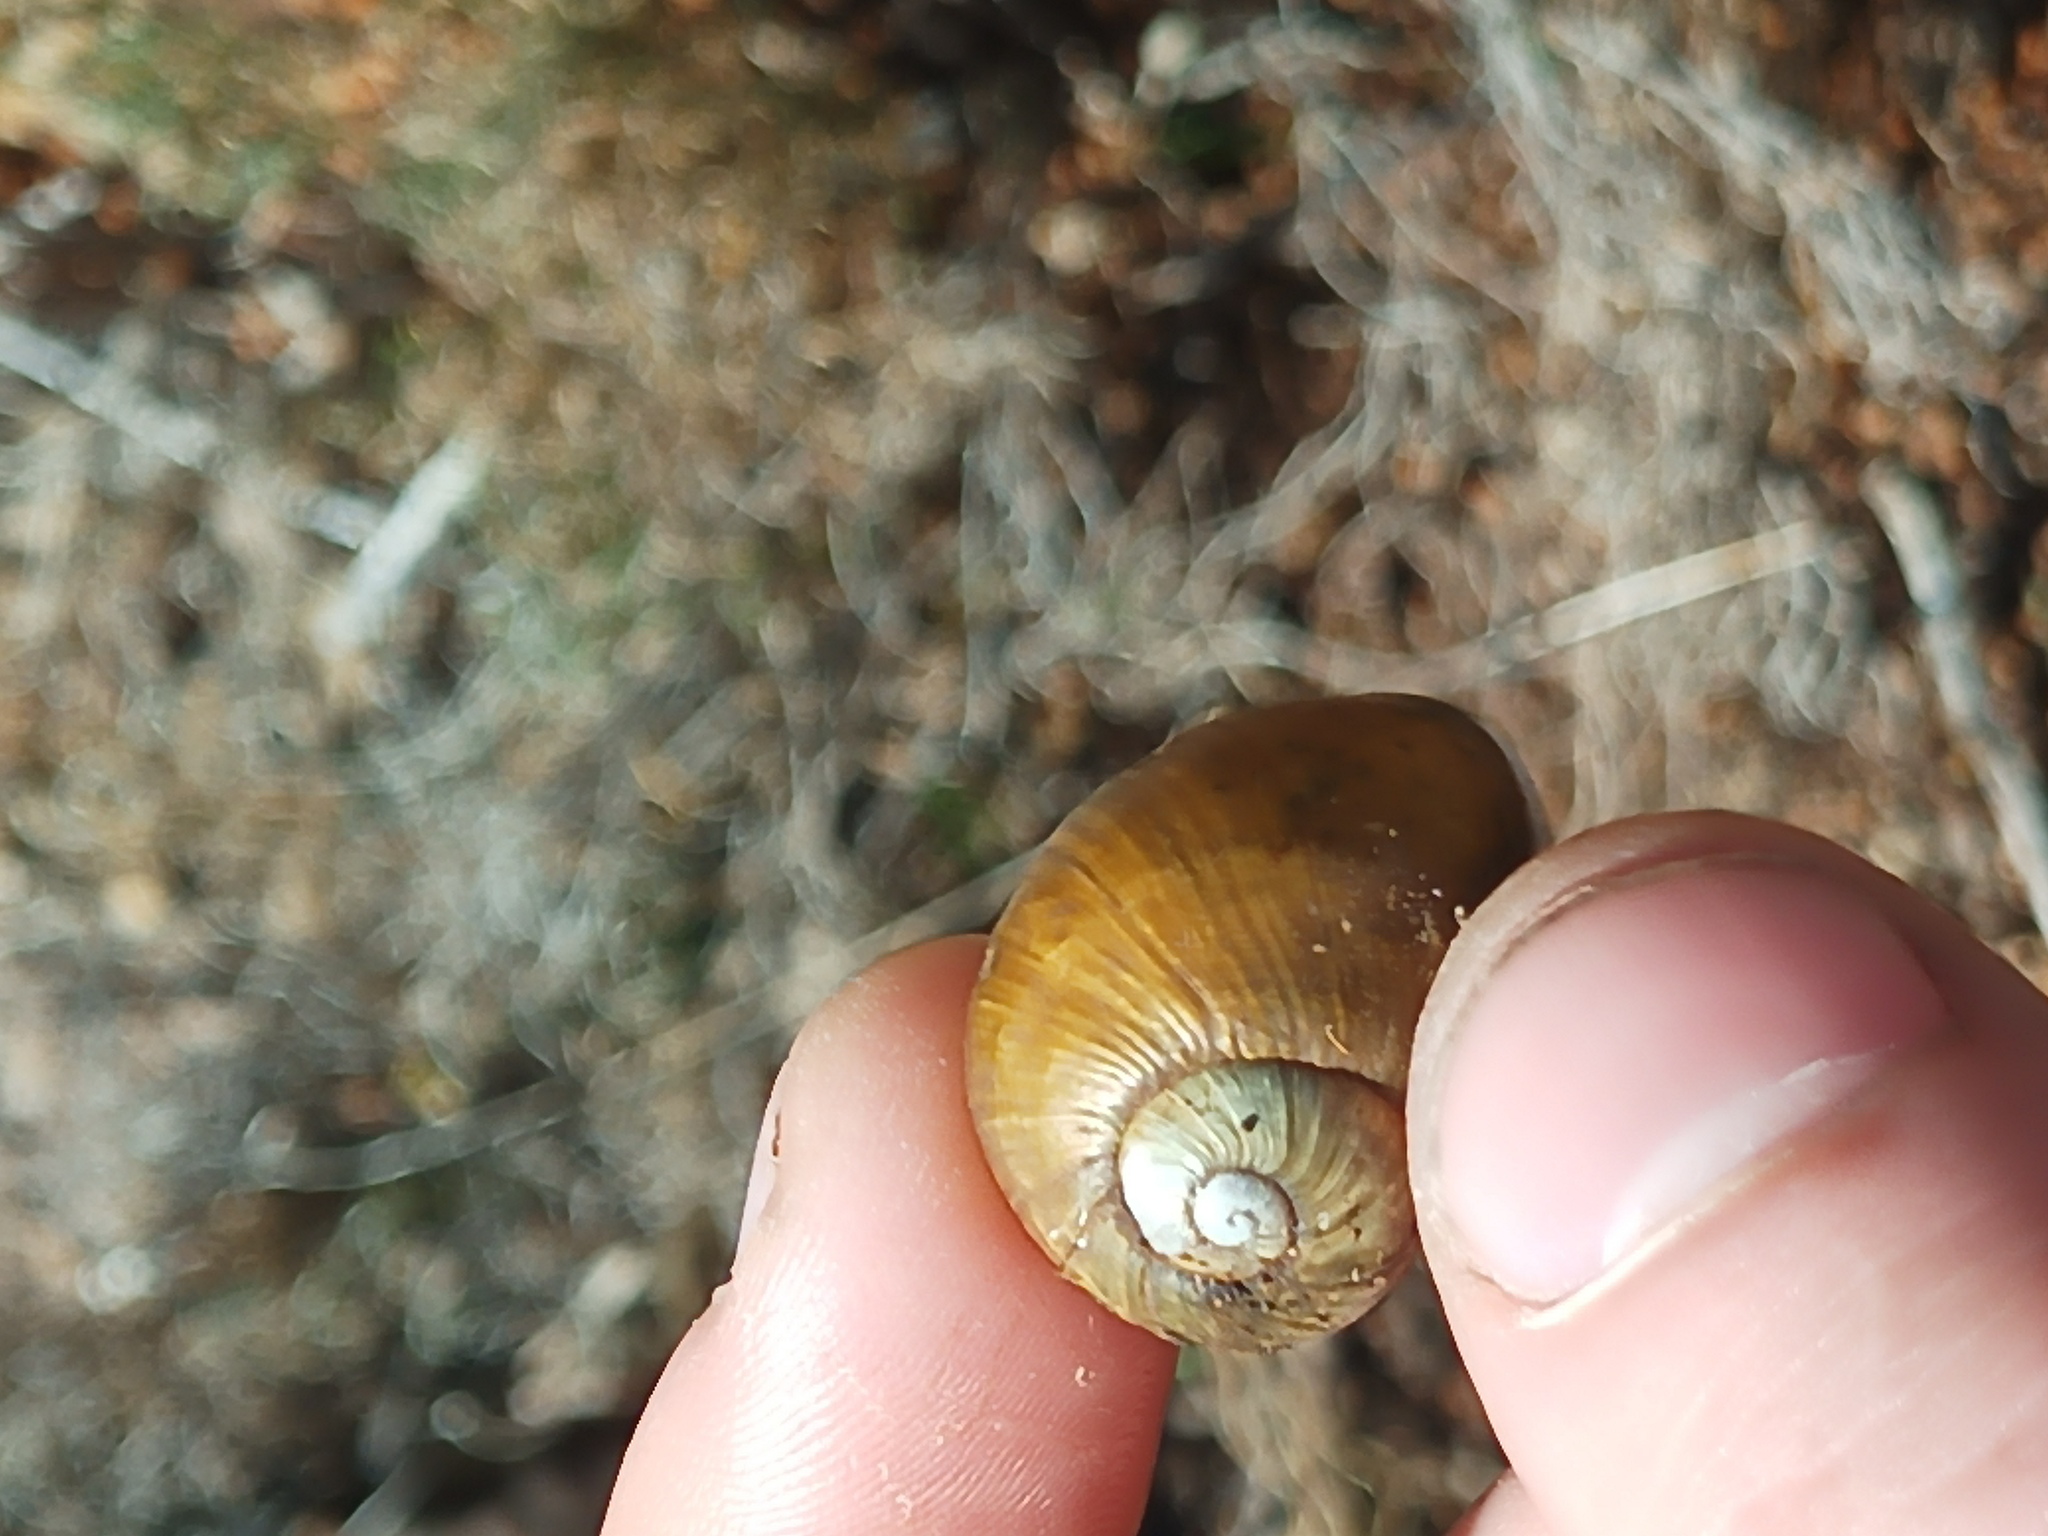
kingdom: Animalia
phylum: Mollusca
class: Gastropoda
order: Stylommatophora
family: Helicidae
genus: Cantareus
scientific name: Cantareus apertus
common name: Green gardensnail
